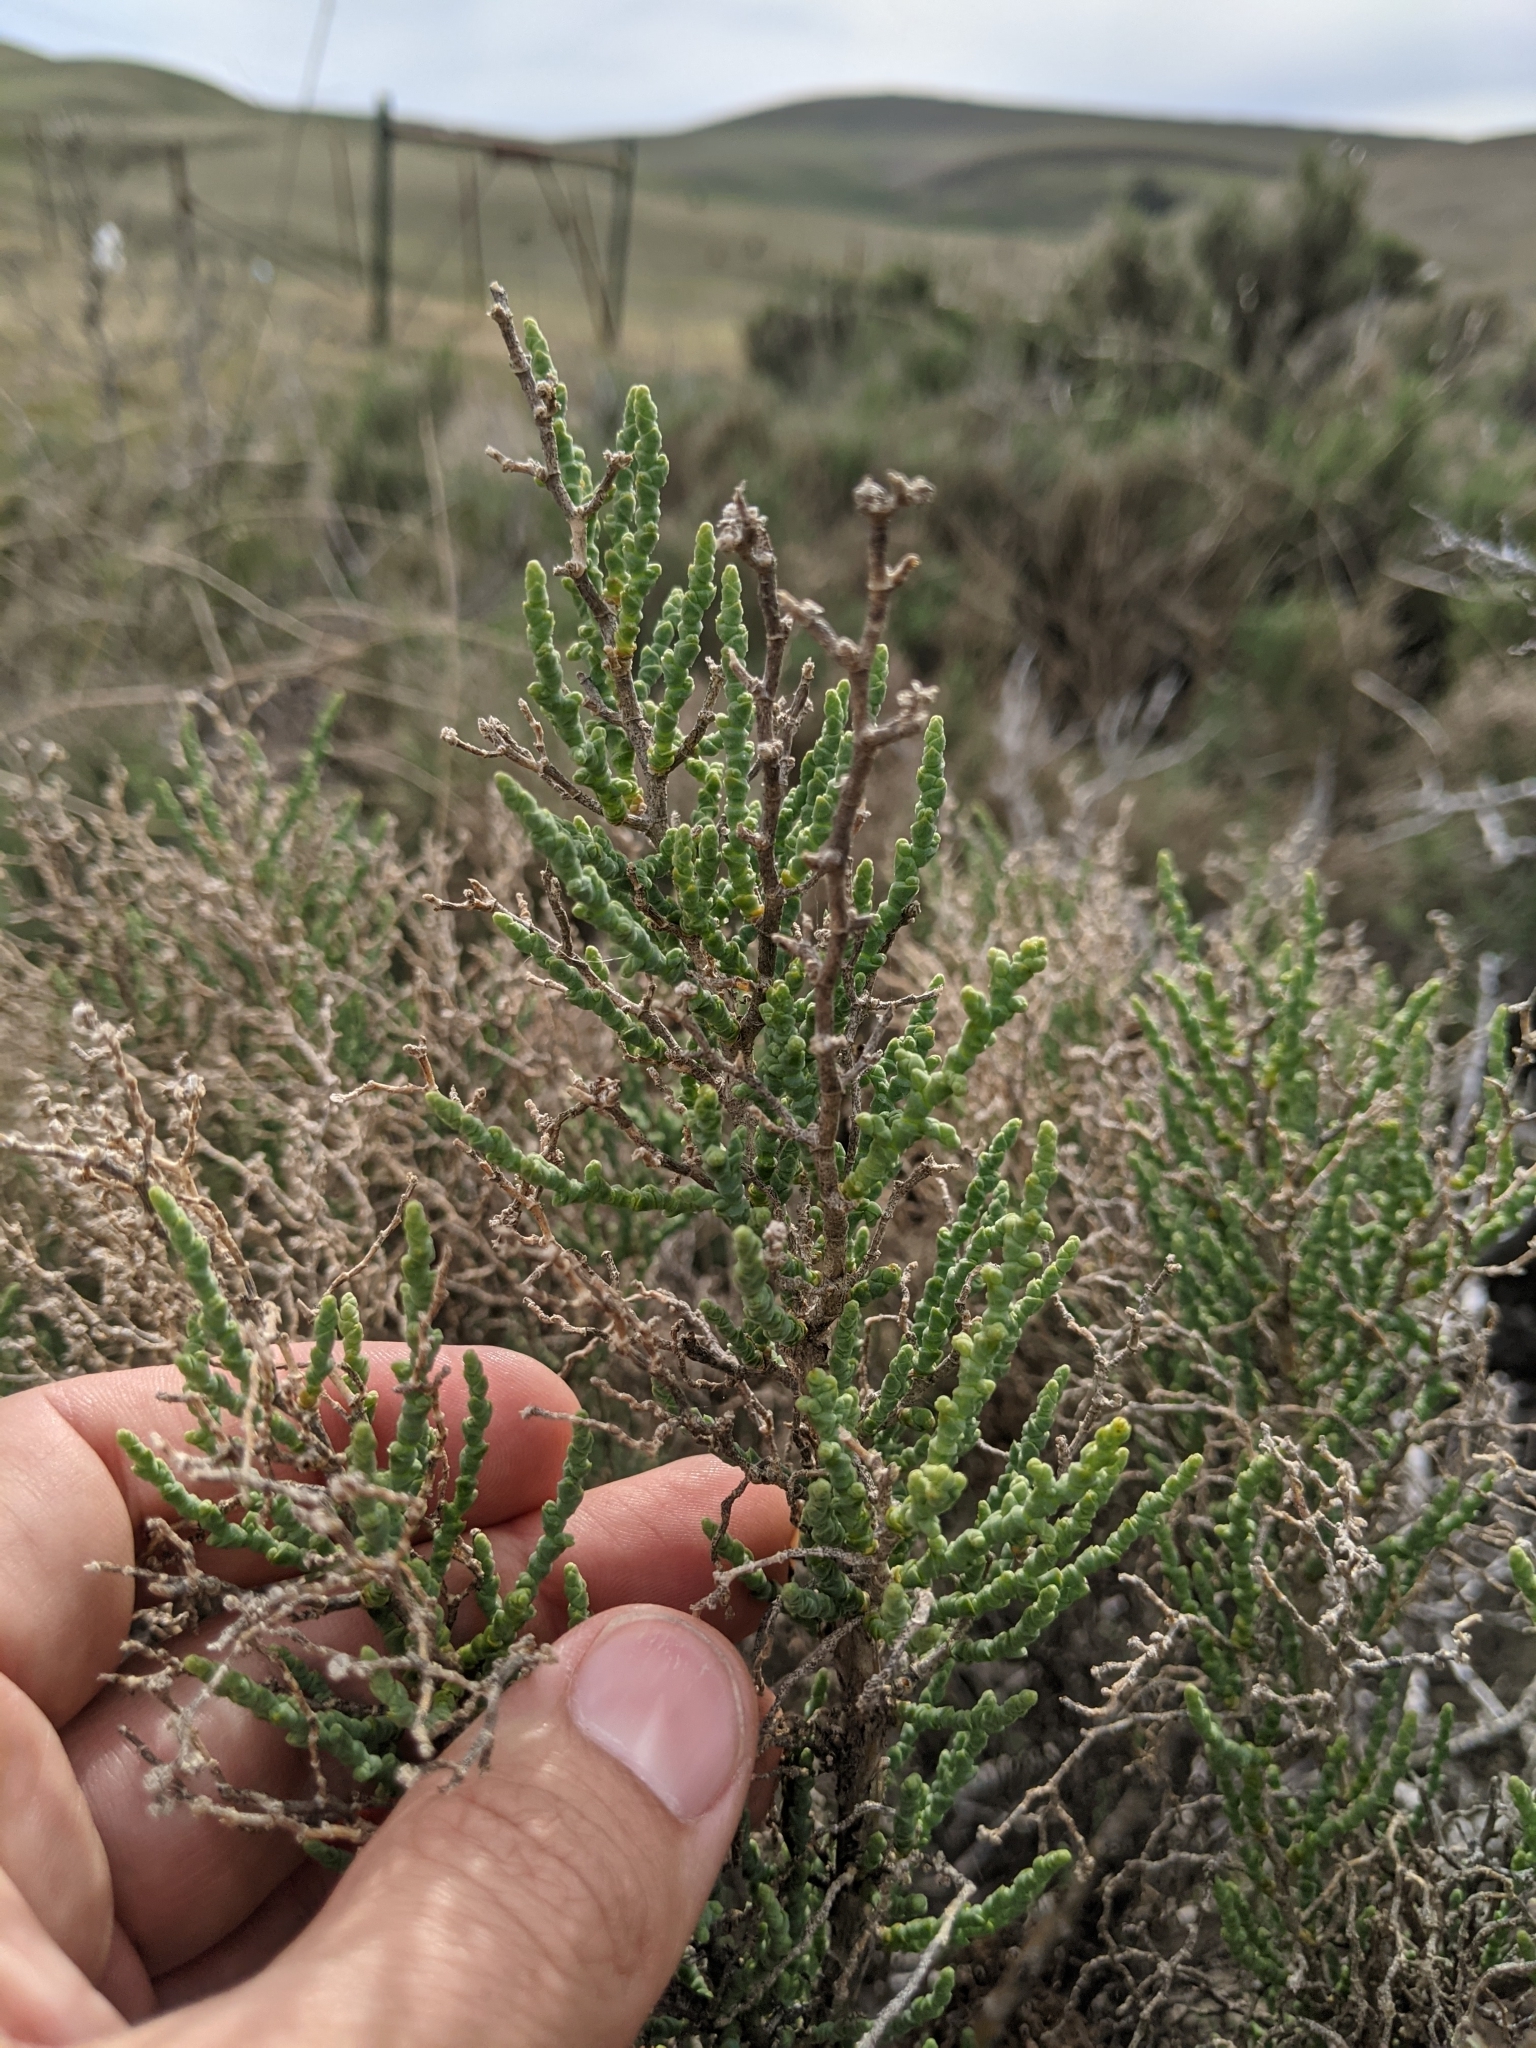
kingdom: Plantae
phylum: Tracheophyta
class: Magnoliopsida
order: Caryophyllales
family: Amaranthaceae
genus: Allenrolfea
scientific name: Allenrolfea occidentalis
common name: Iodine-bush
